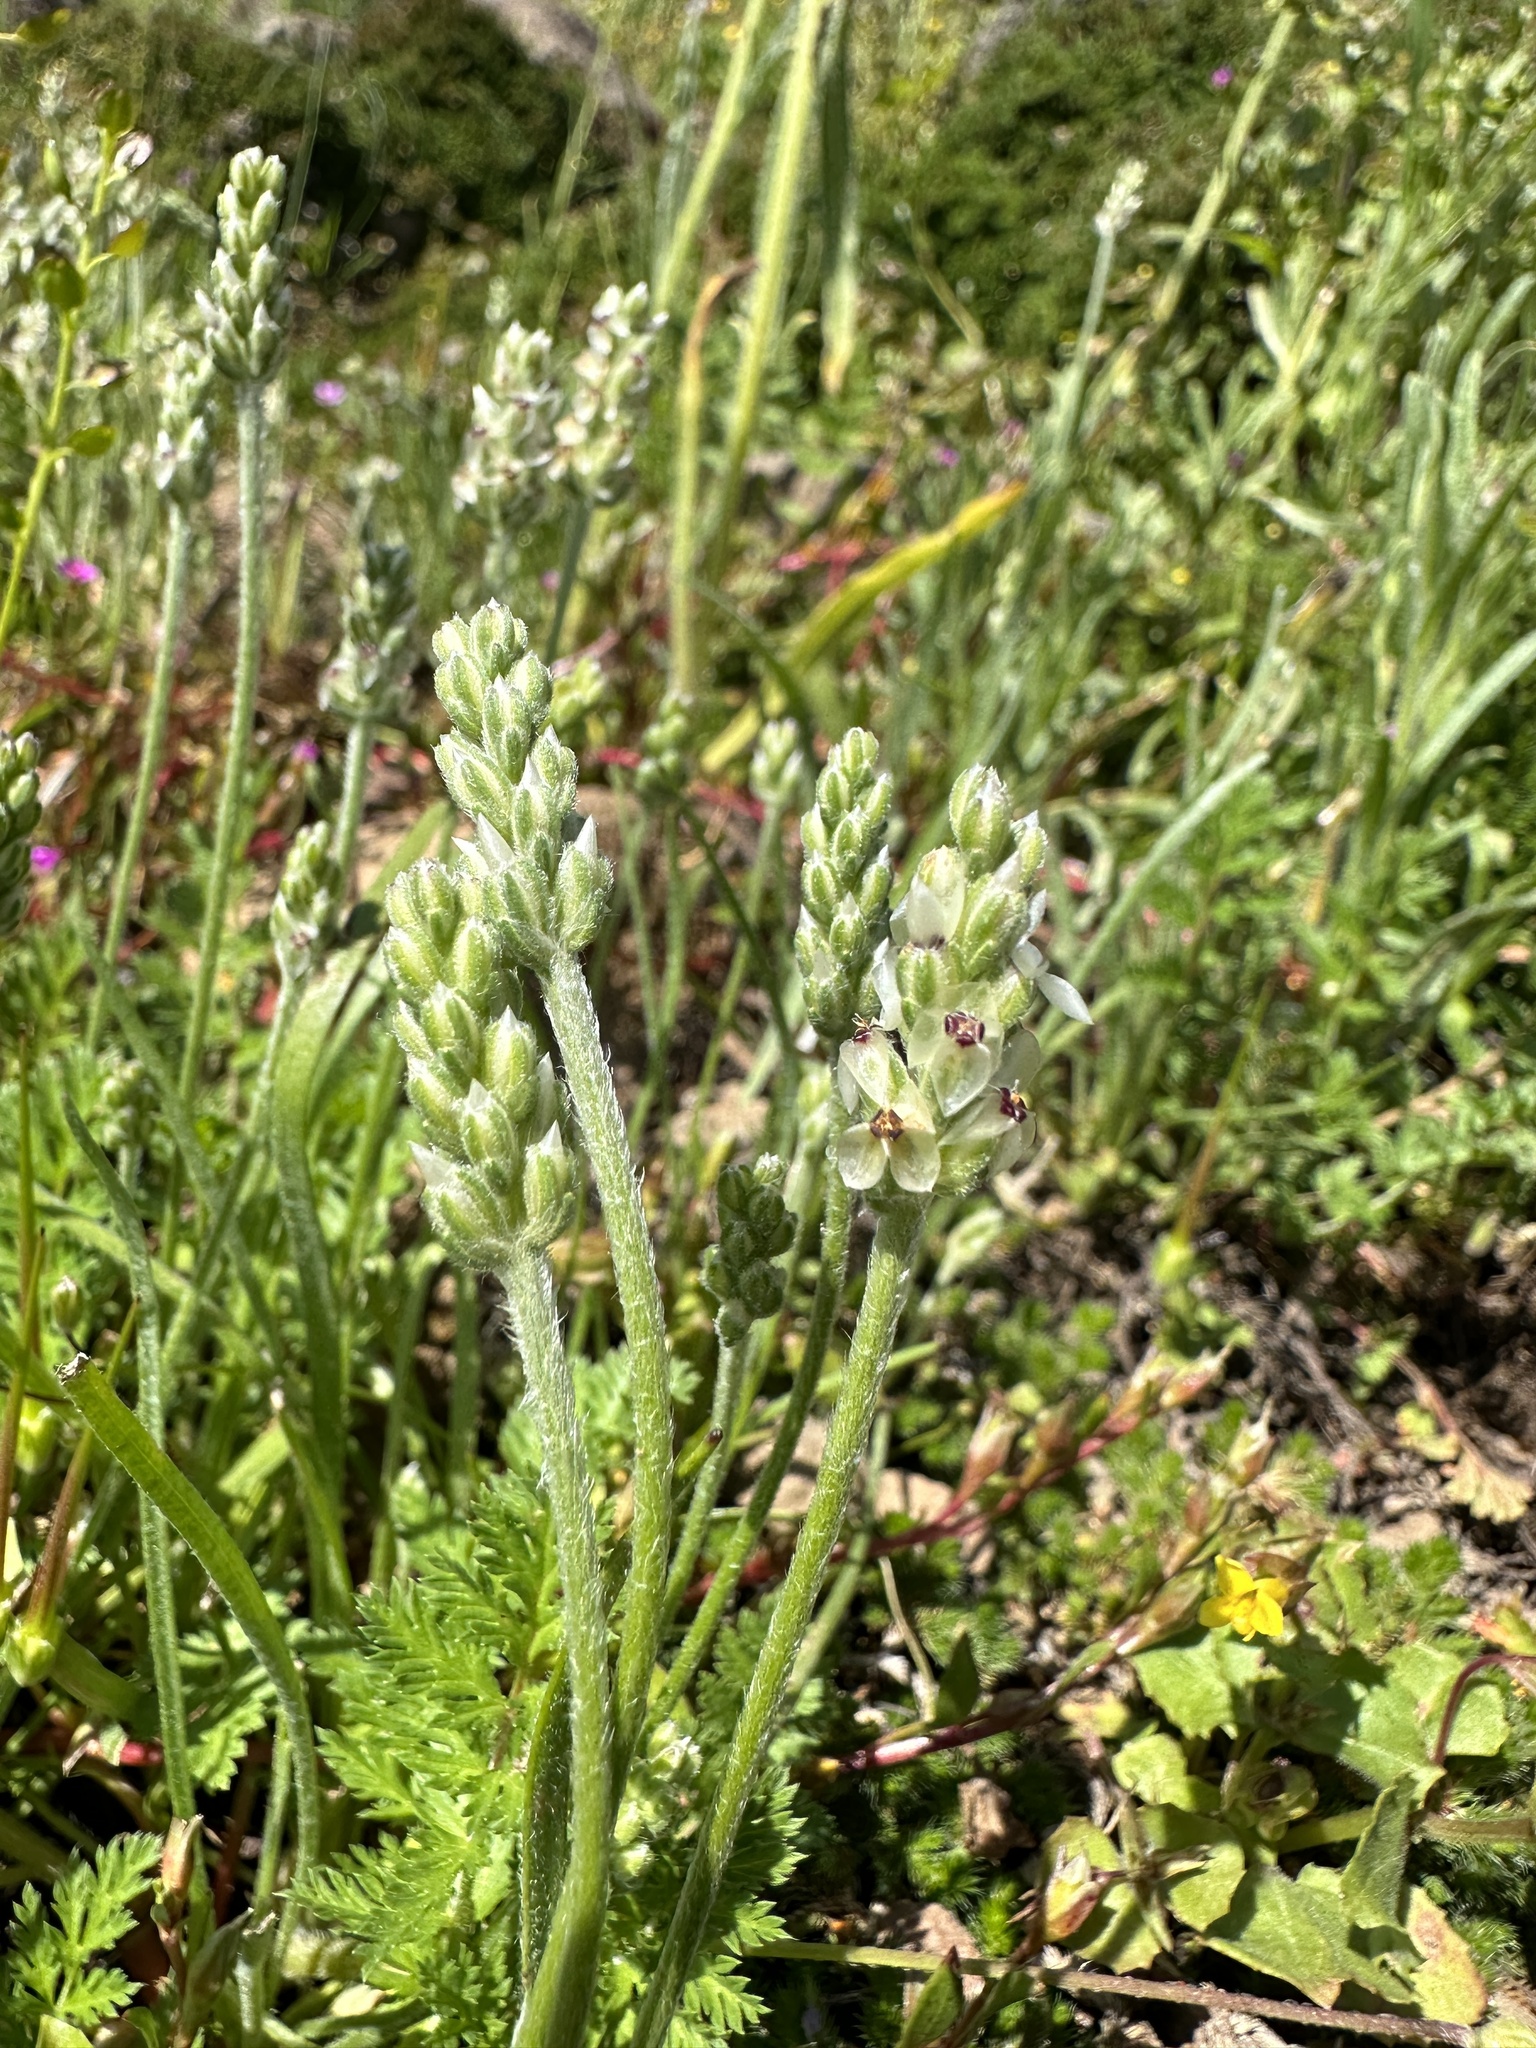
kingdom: Plantae
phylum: Tracheophyta
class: Magnoliopsida
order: Lamiales
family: Plantaginaceae
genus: Plantago
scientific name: Plantago erecta
